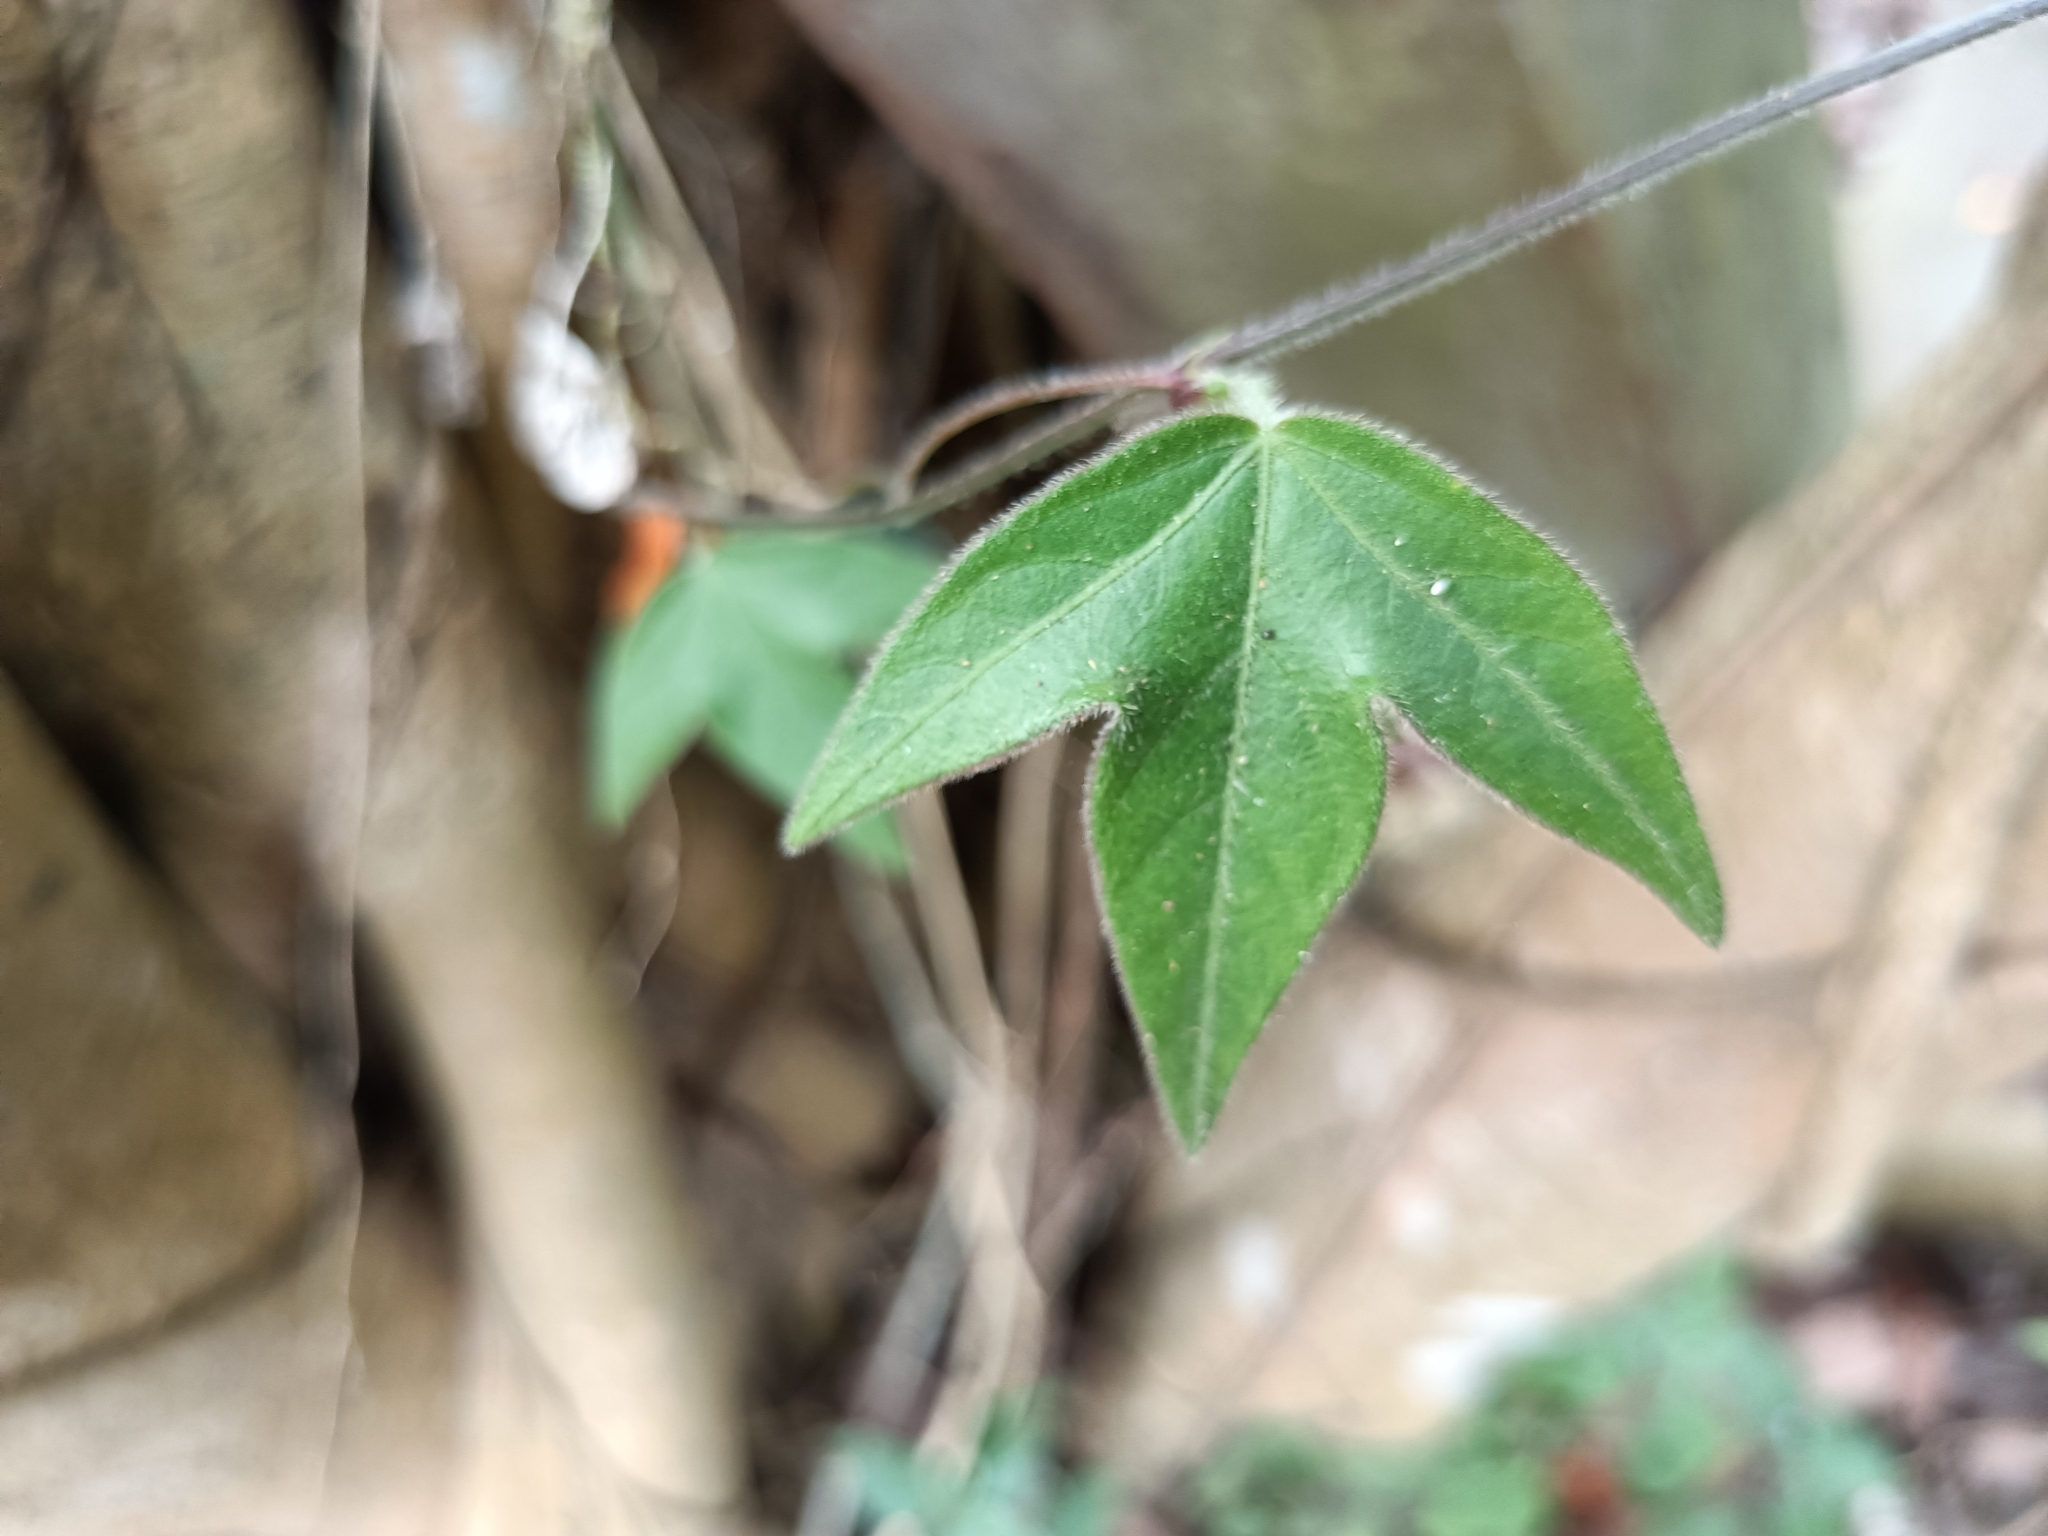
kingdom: Plantae
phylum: Tracheophyta
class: Magnoliopsida
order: Malpighiales
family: Passifloraceae
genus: Passiflora
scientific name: Passiflora suberosa
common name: Wild passionfruit
